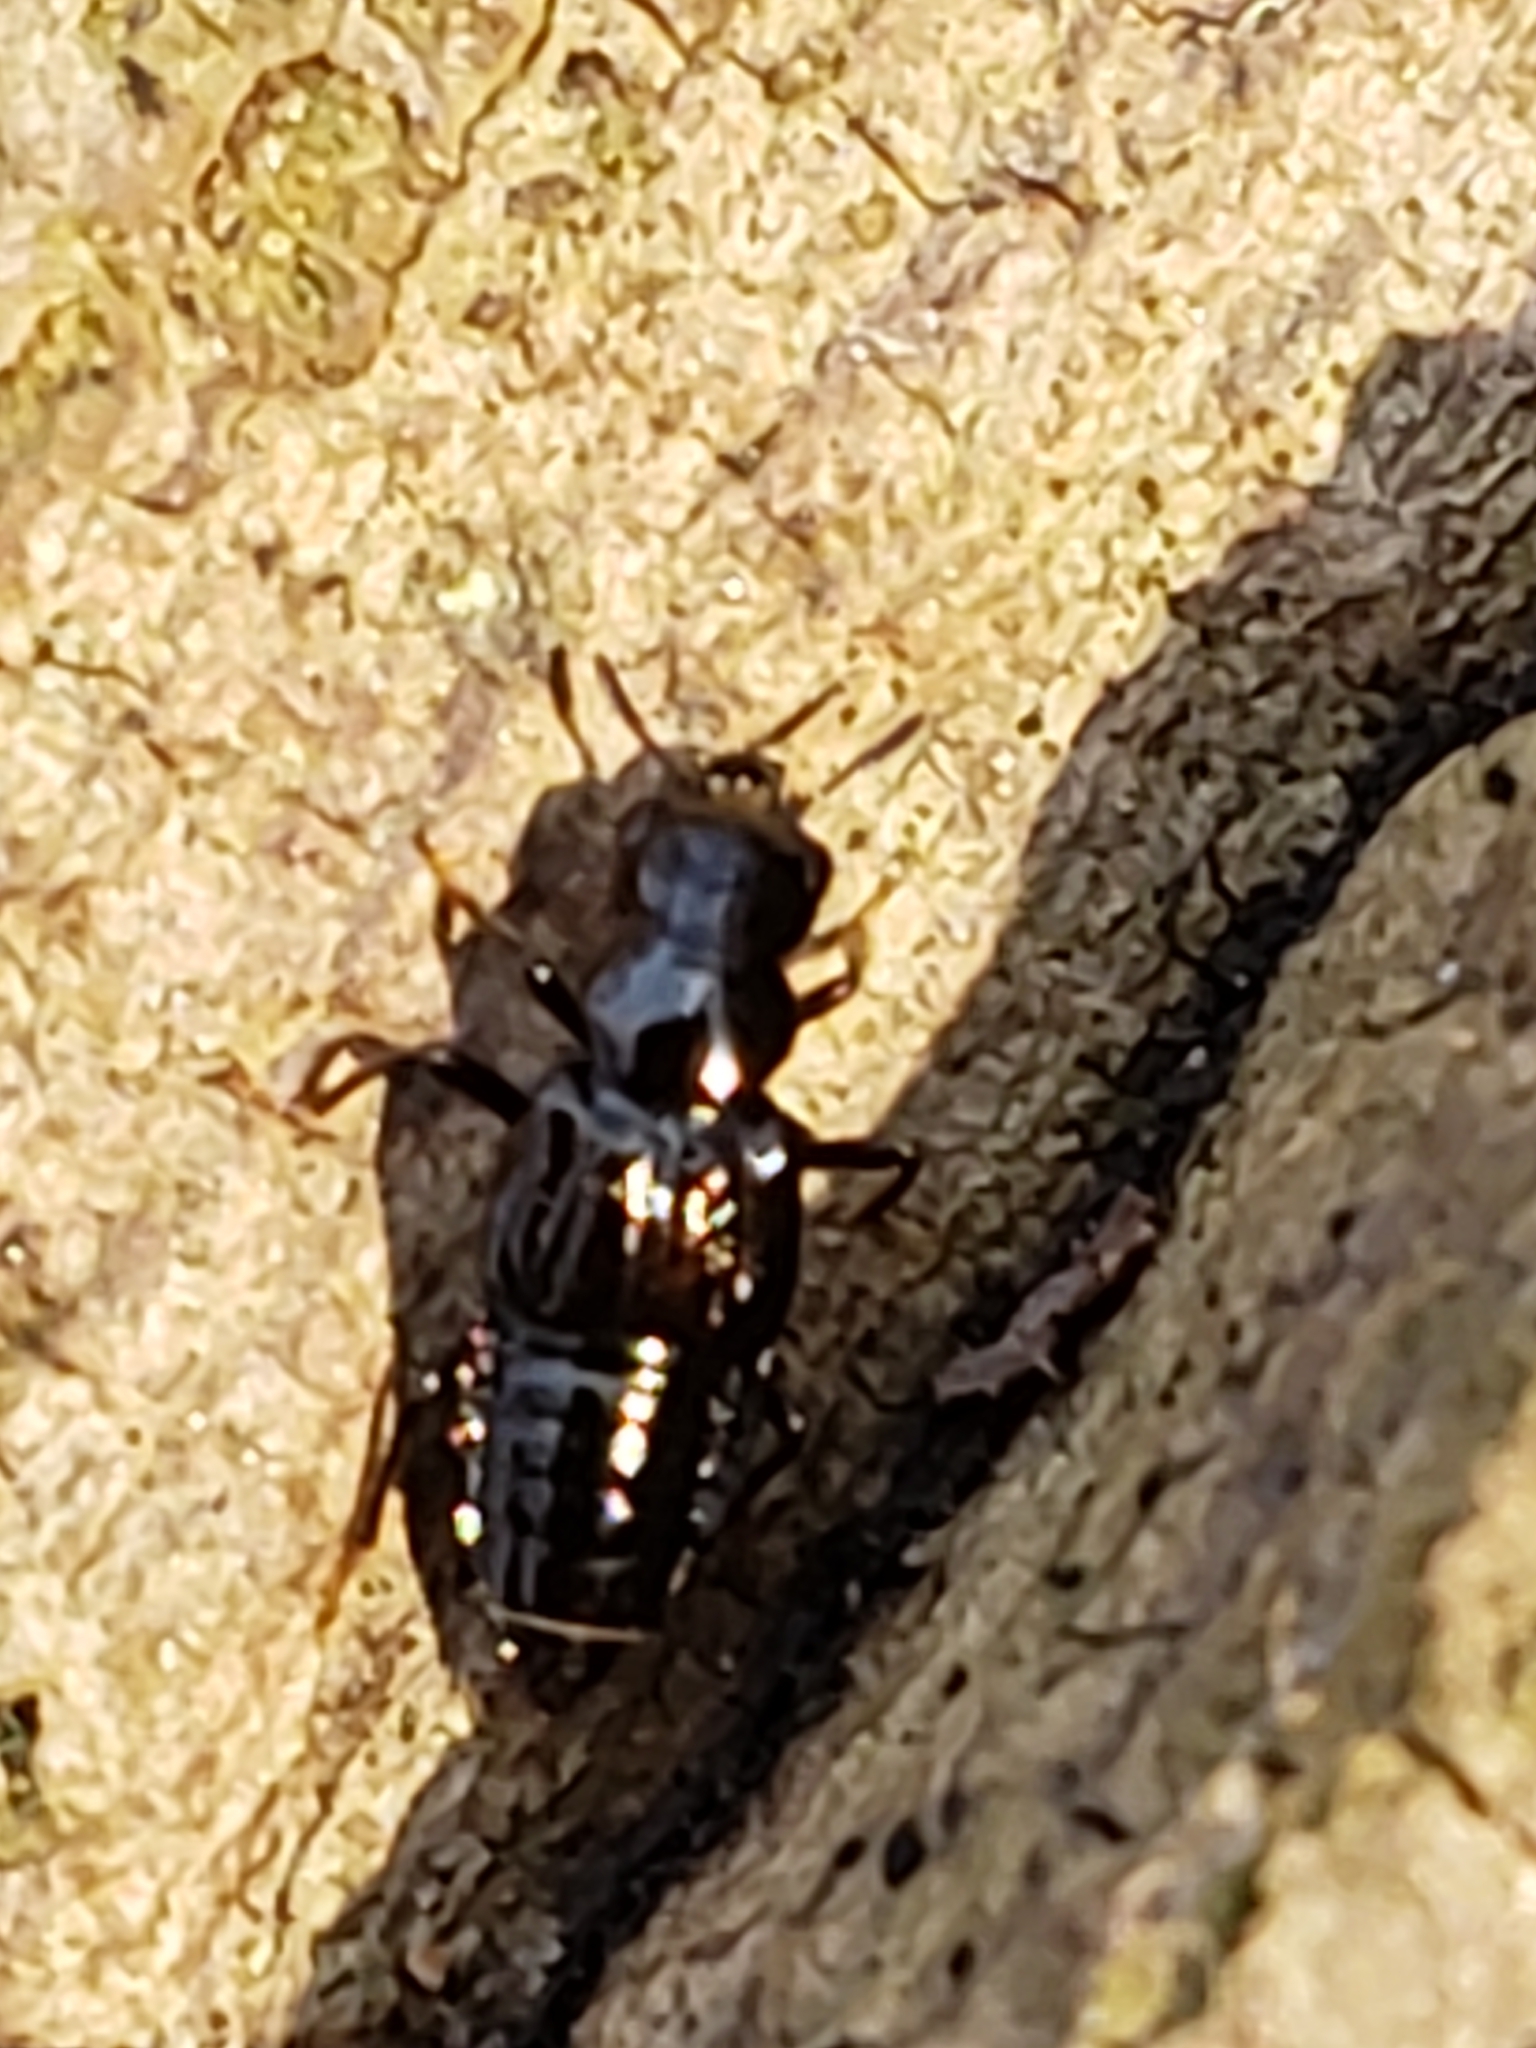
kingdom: Animalia
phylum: Arthropoda
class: Insecta
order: Coleoptera
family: Staphylinidae
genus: Oxyporus
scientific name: Oxyporus stygicus
